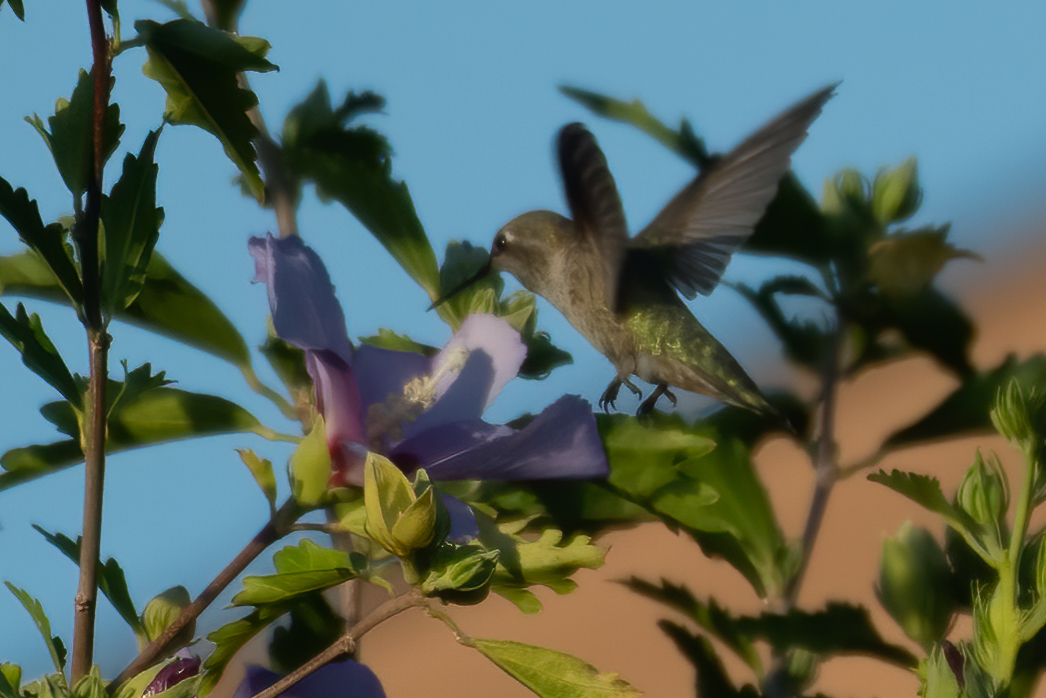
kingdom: Animalia
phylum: Chordata
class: Aves
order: Apodiformes
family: Trochilidae
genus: Calypte
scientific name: Calypte anna
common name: Anna's hummingbird
